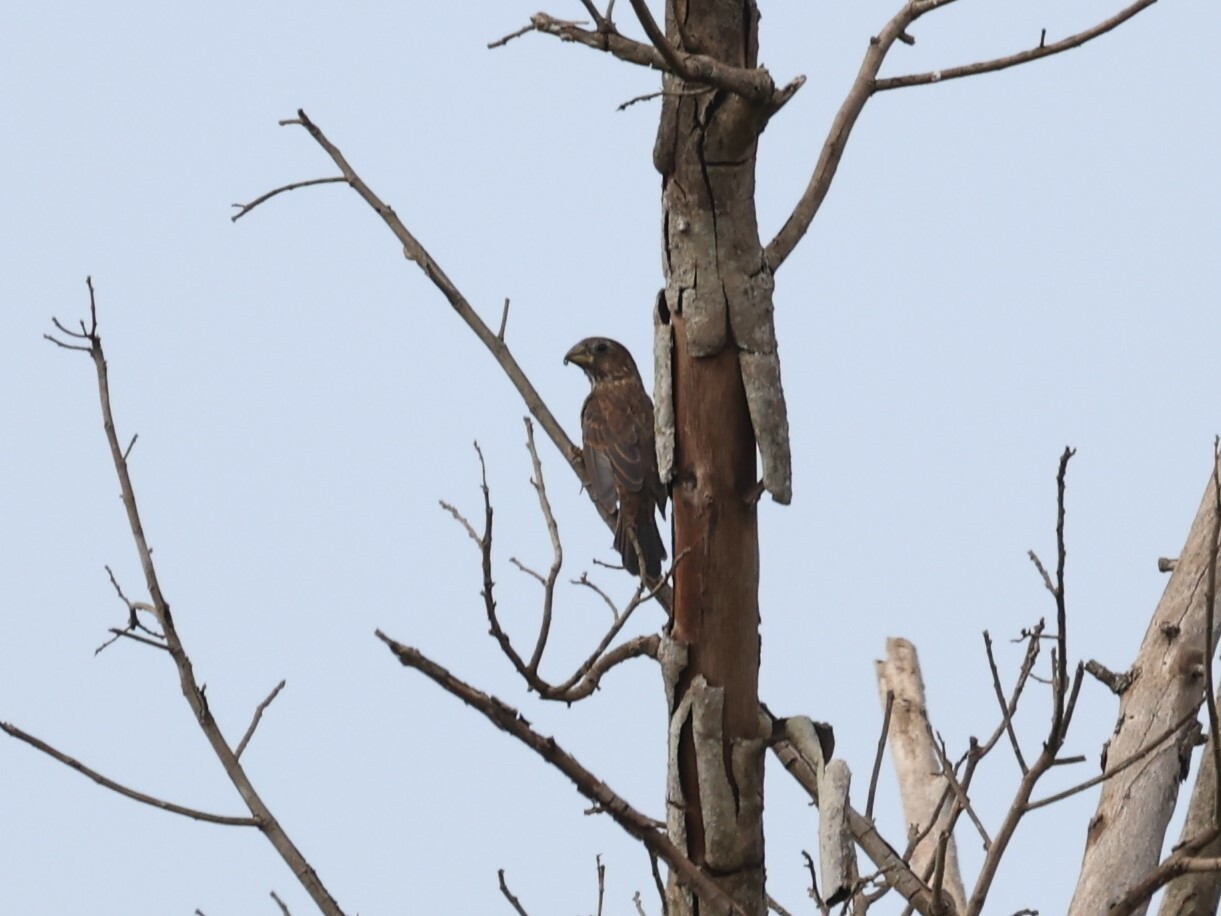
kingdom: Animalia
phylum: Chordata
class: Aves
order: Passeriformes
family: Ploceidae
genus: Amblyospiza
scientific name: Amblyospiza albifrons
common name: Thick-billed weaver
